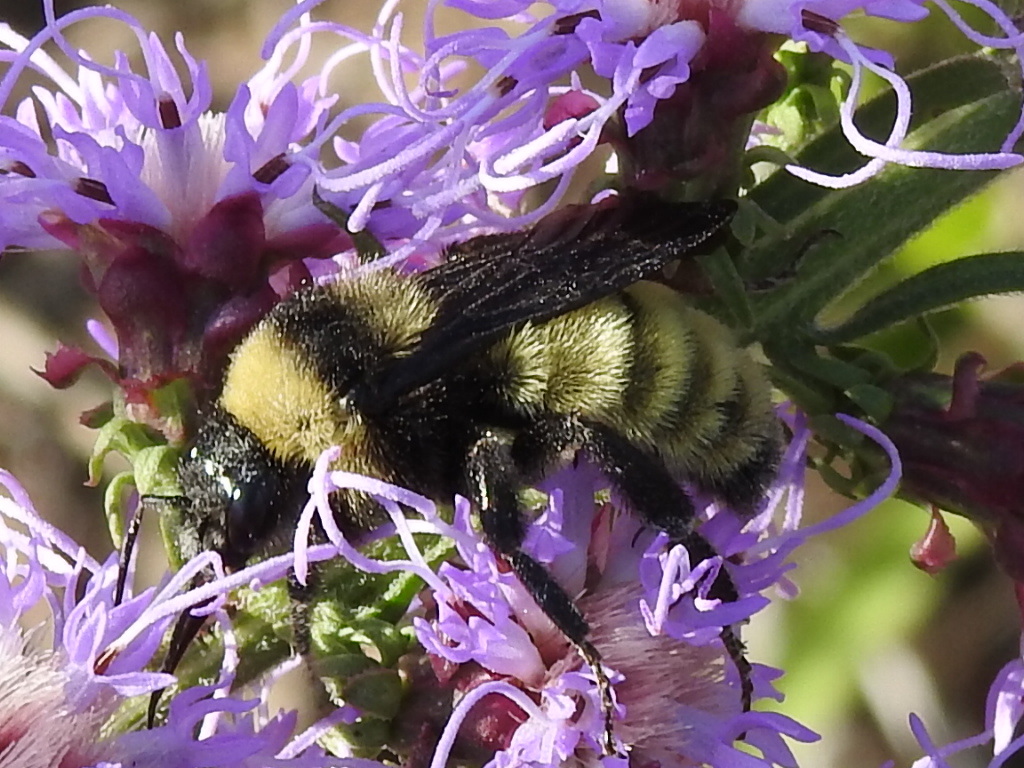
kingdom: Animalia
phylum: Arthropoda
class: Insecta
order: Hymenoptera
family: Apidae
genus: Bombus
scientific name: Bombus pensylvanicus
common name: Bumble bee
